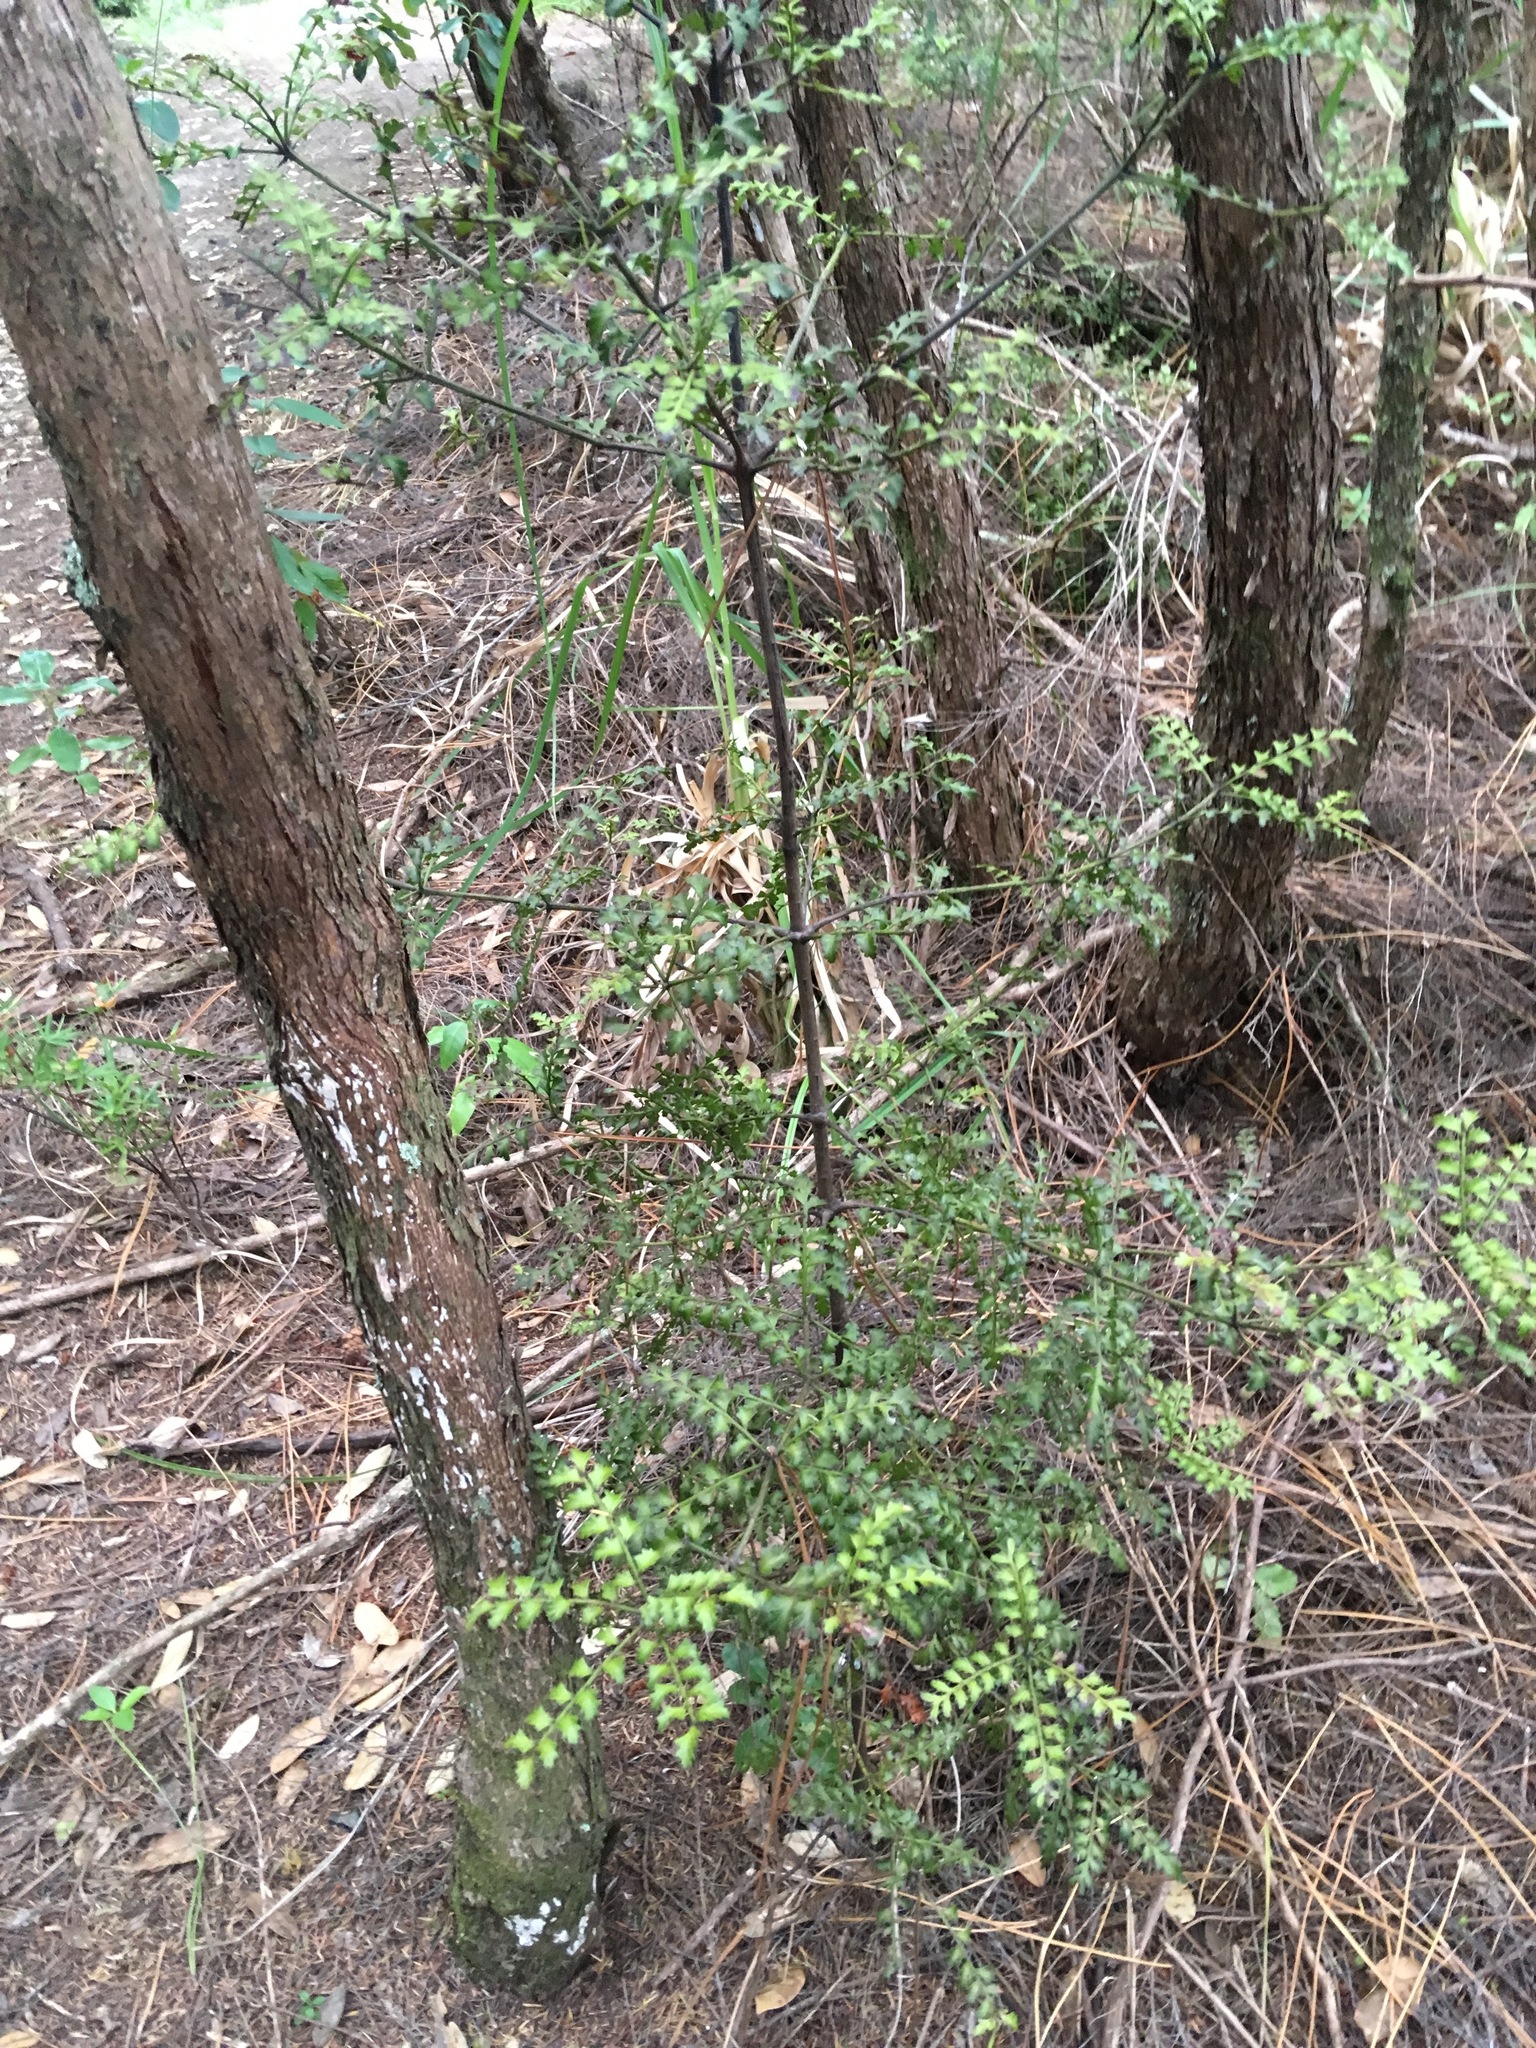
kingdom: Plantae
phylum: Tracheophyta
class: Pinopsida
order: Pinales
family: Phyllocladaceae
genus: Phyllocladus
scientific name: Phyllocladus trichomanoides
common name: Celery pine
